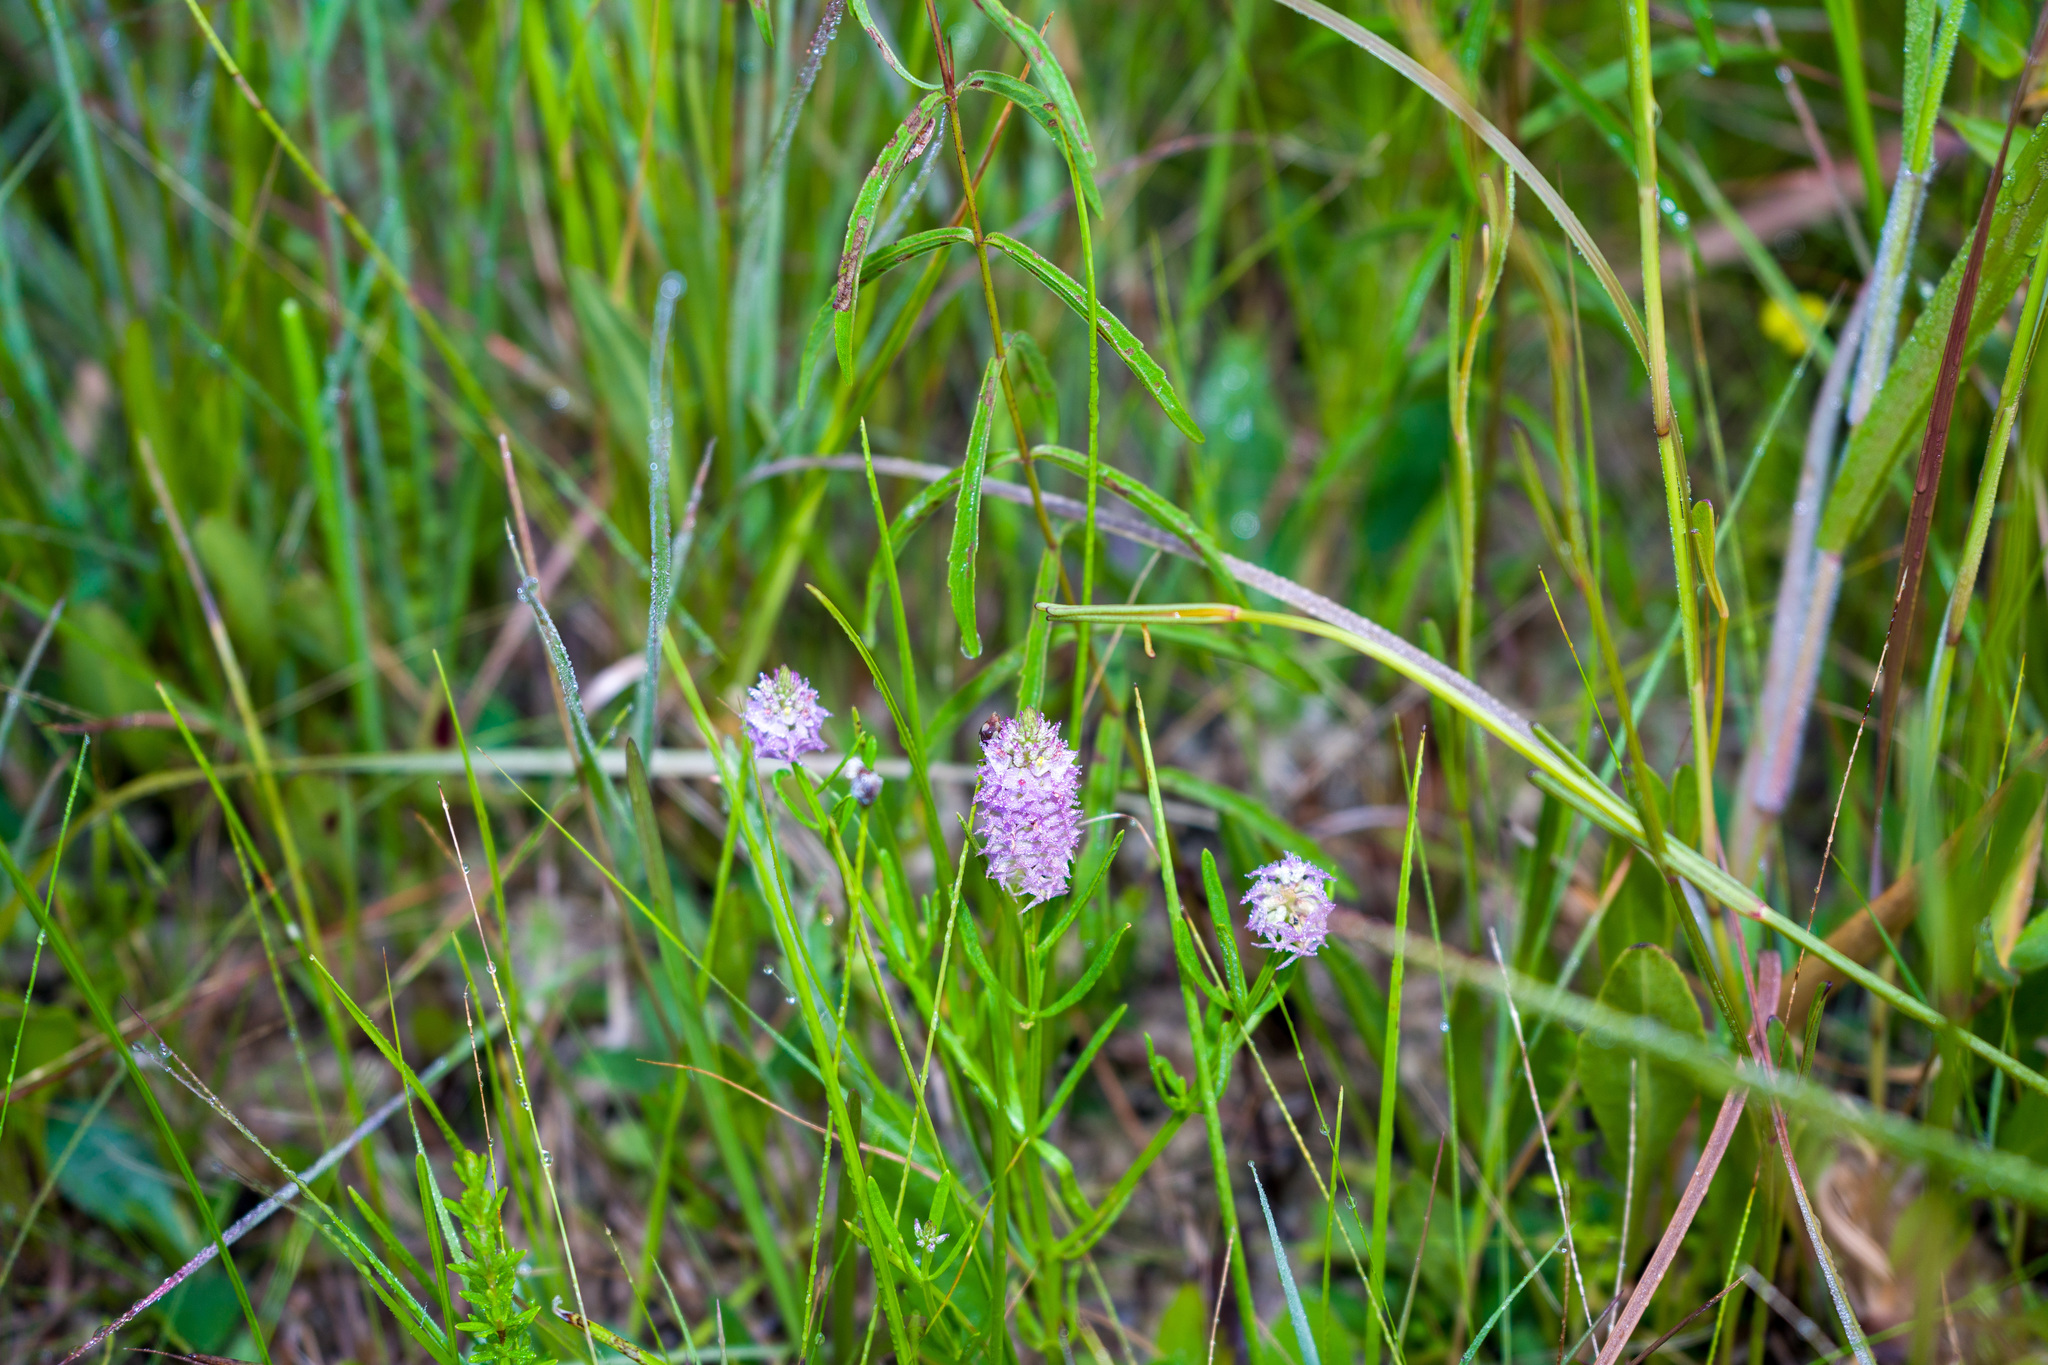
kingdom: Plantae
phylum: Tracheophyta
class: Magnoliopsida
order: Fabales
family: Polygalaceae
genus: Polygala
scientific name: Polygala cruciata
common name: Drumheads
